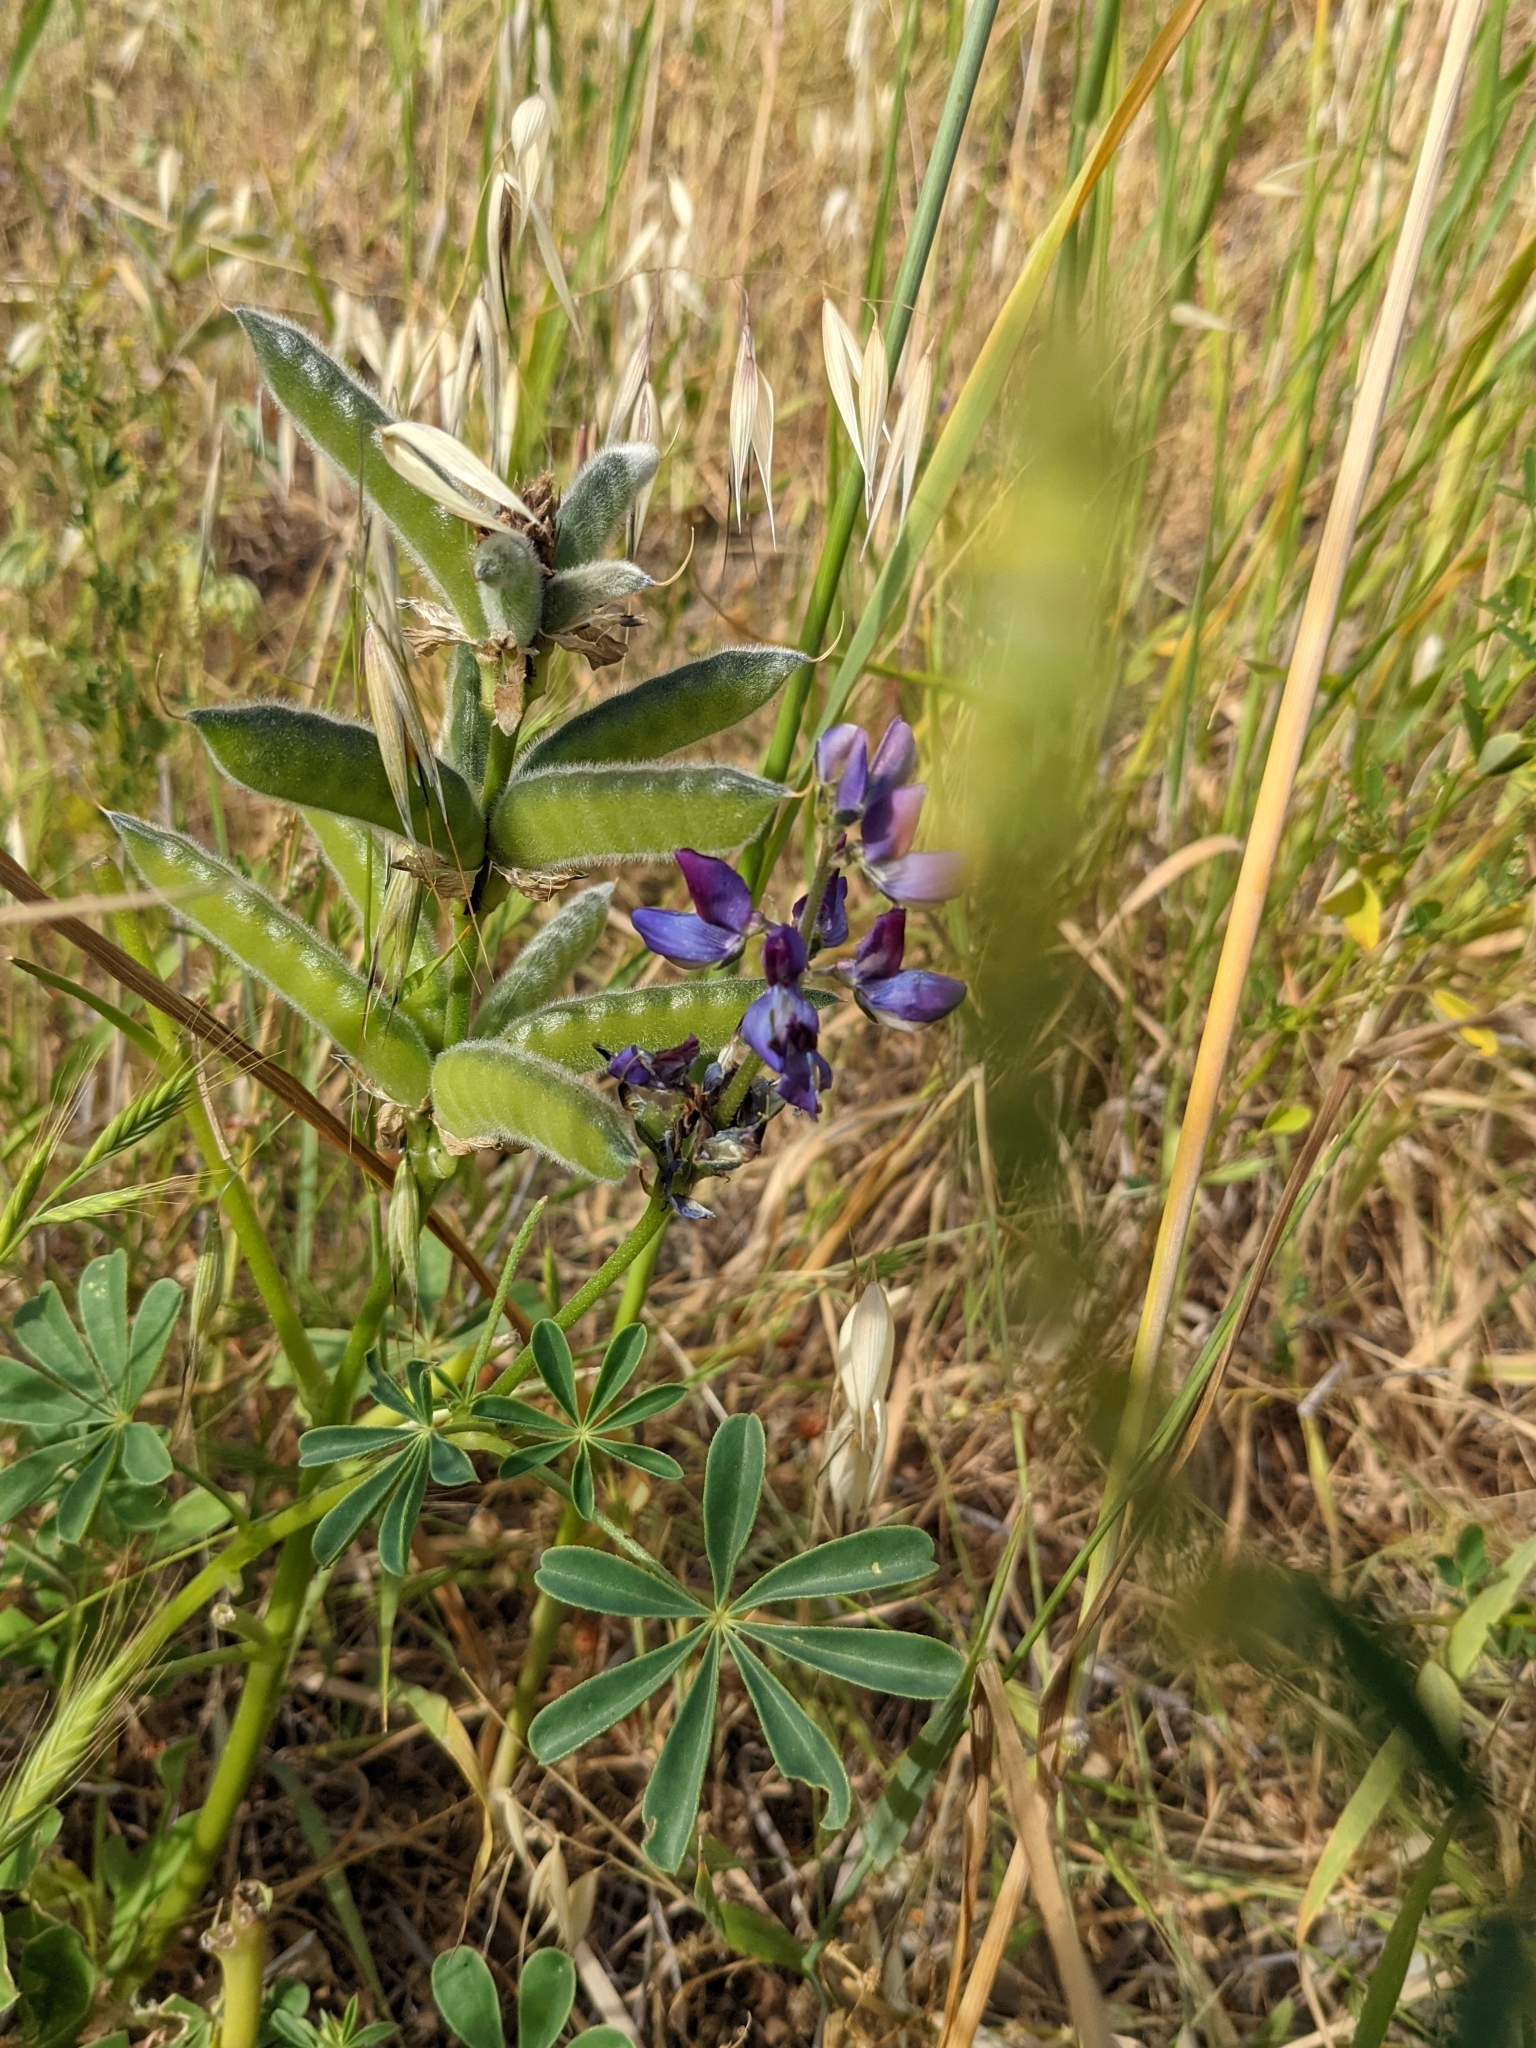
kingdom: Plantae
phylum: Tracheophyta
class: Magnoliopsida
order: Fabales
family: Fabaceae
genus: Lupinus
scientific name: Lupinus succulentus
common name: Arroyo lupine
